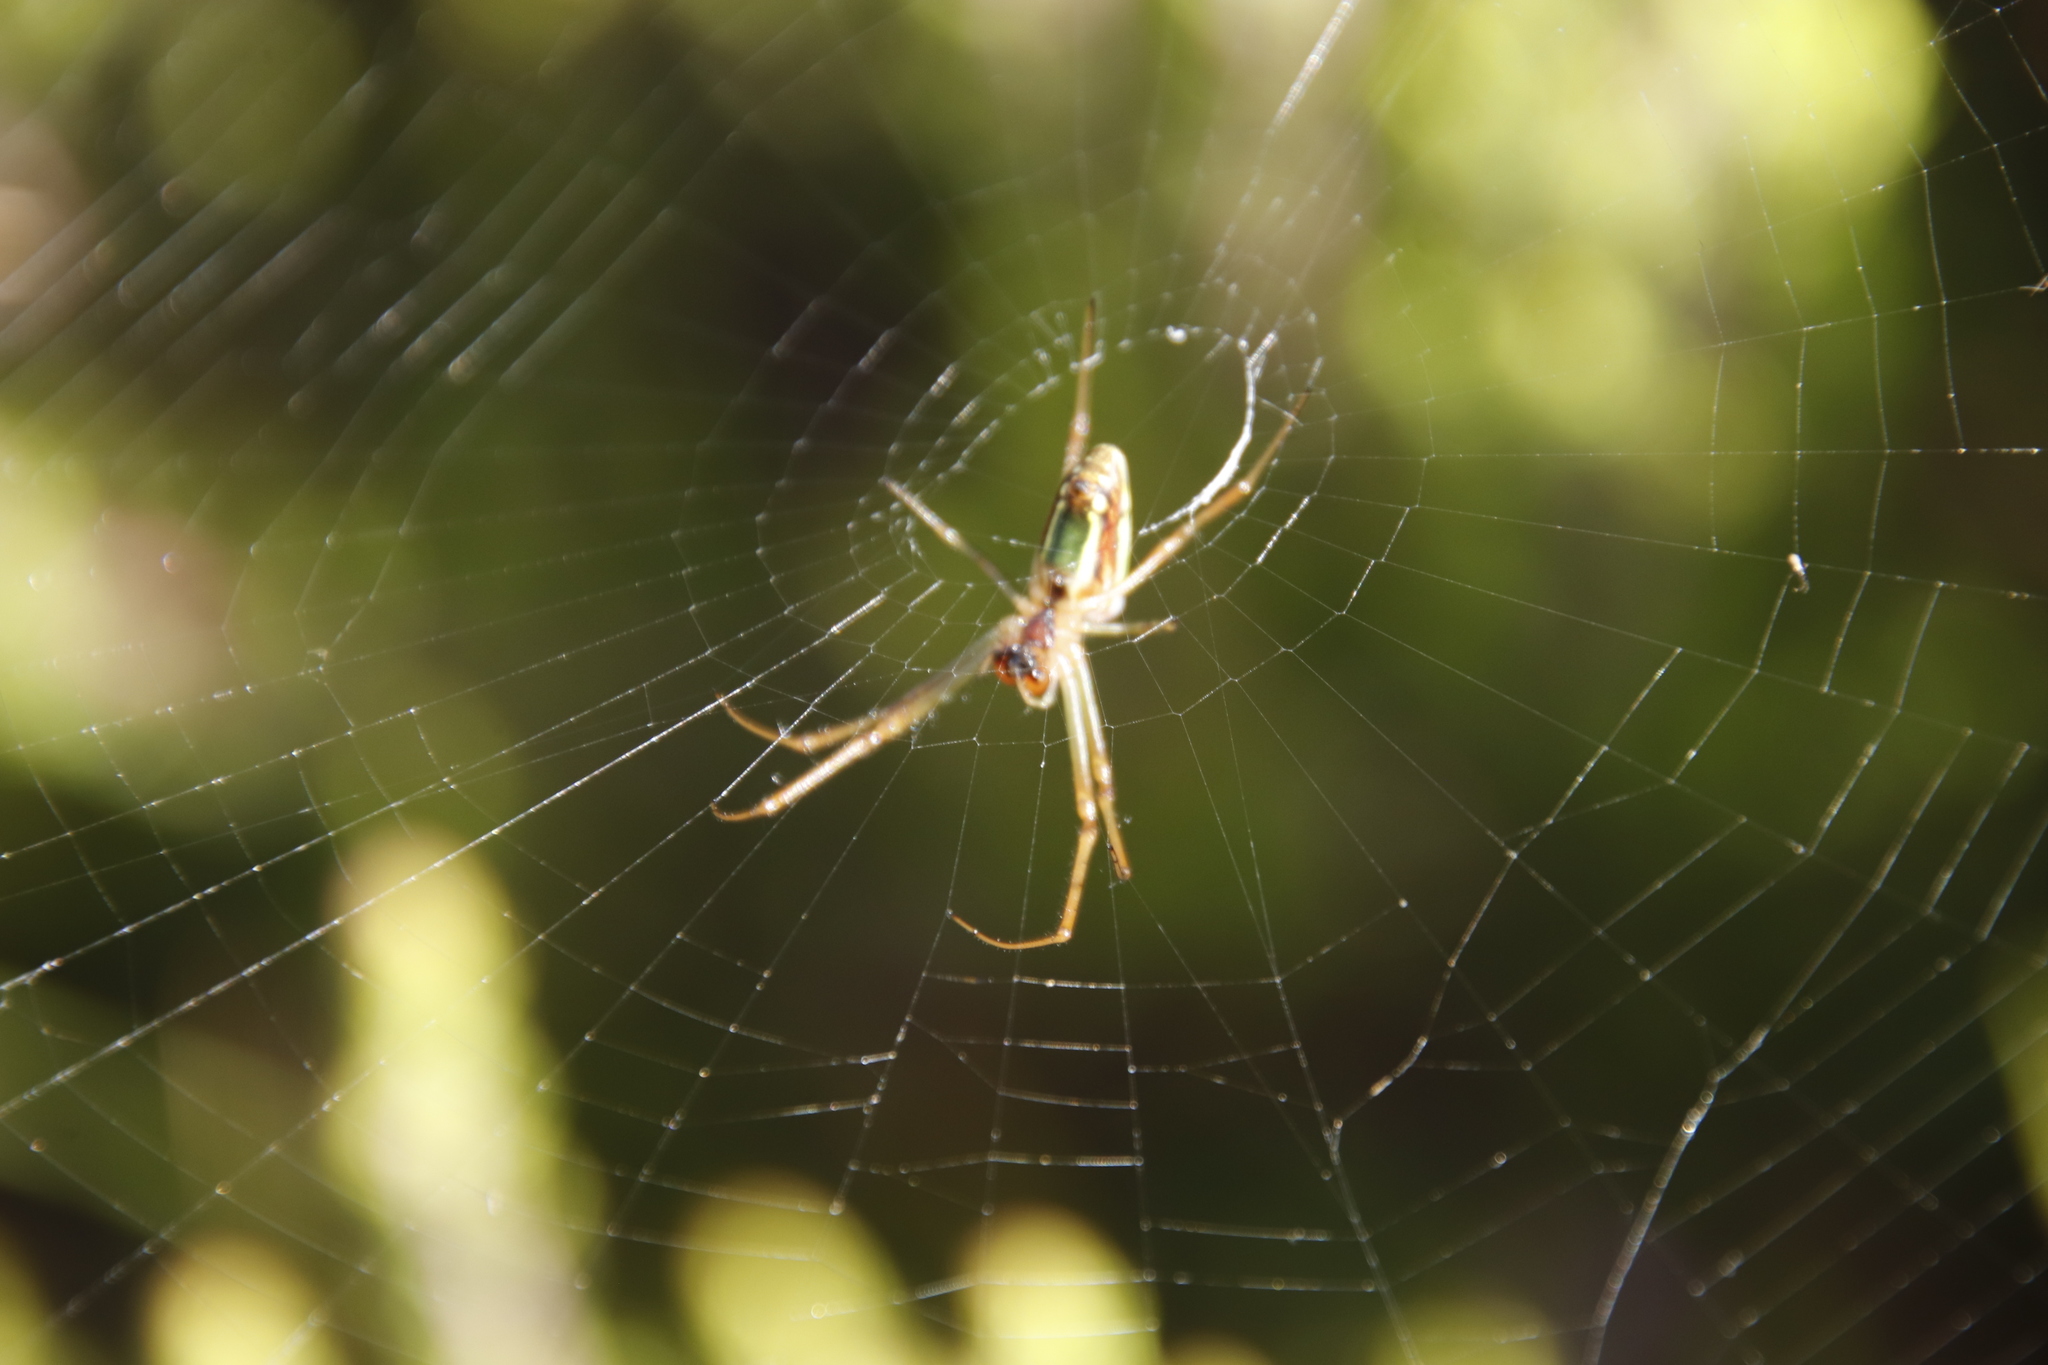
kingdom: Animalia
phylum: Arthropoda
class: Arachnida
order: Araneae
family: Tetragnathidae
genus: Leucauge
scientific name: Leucauge festiva
